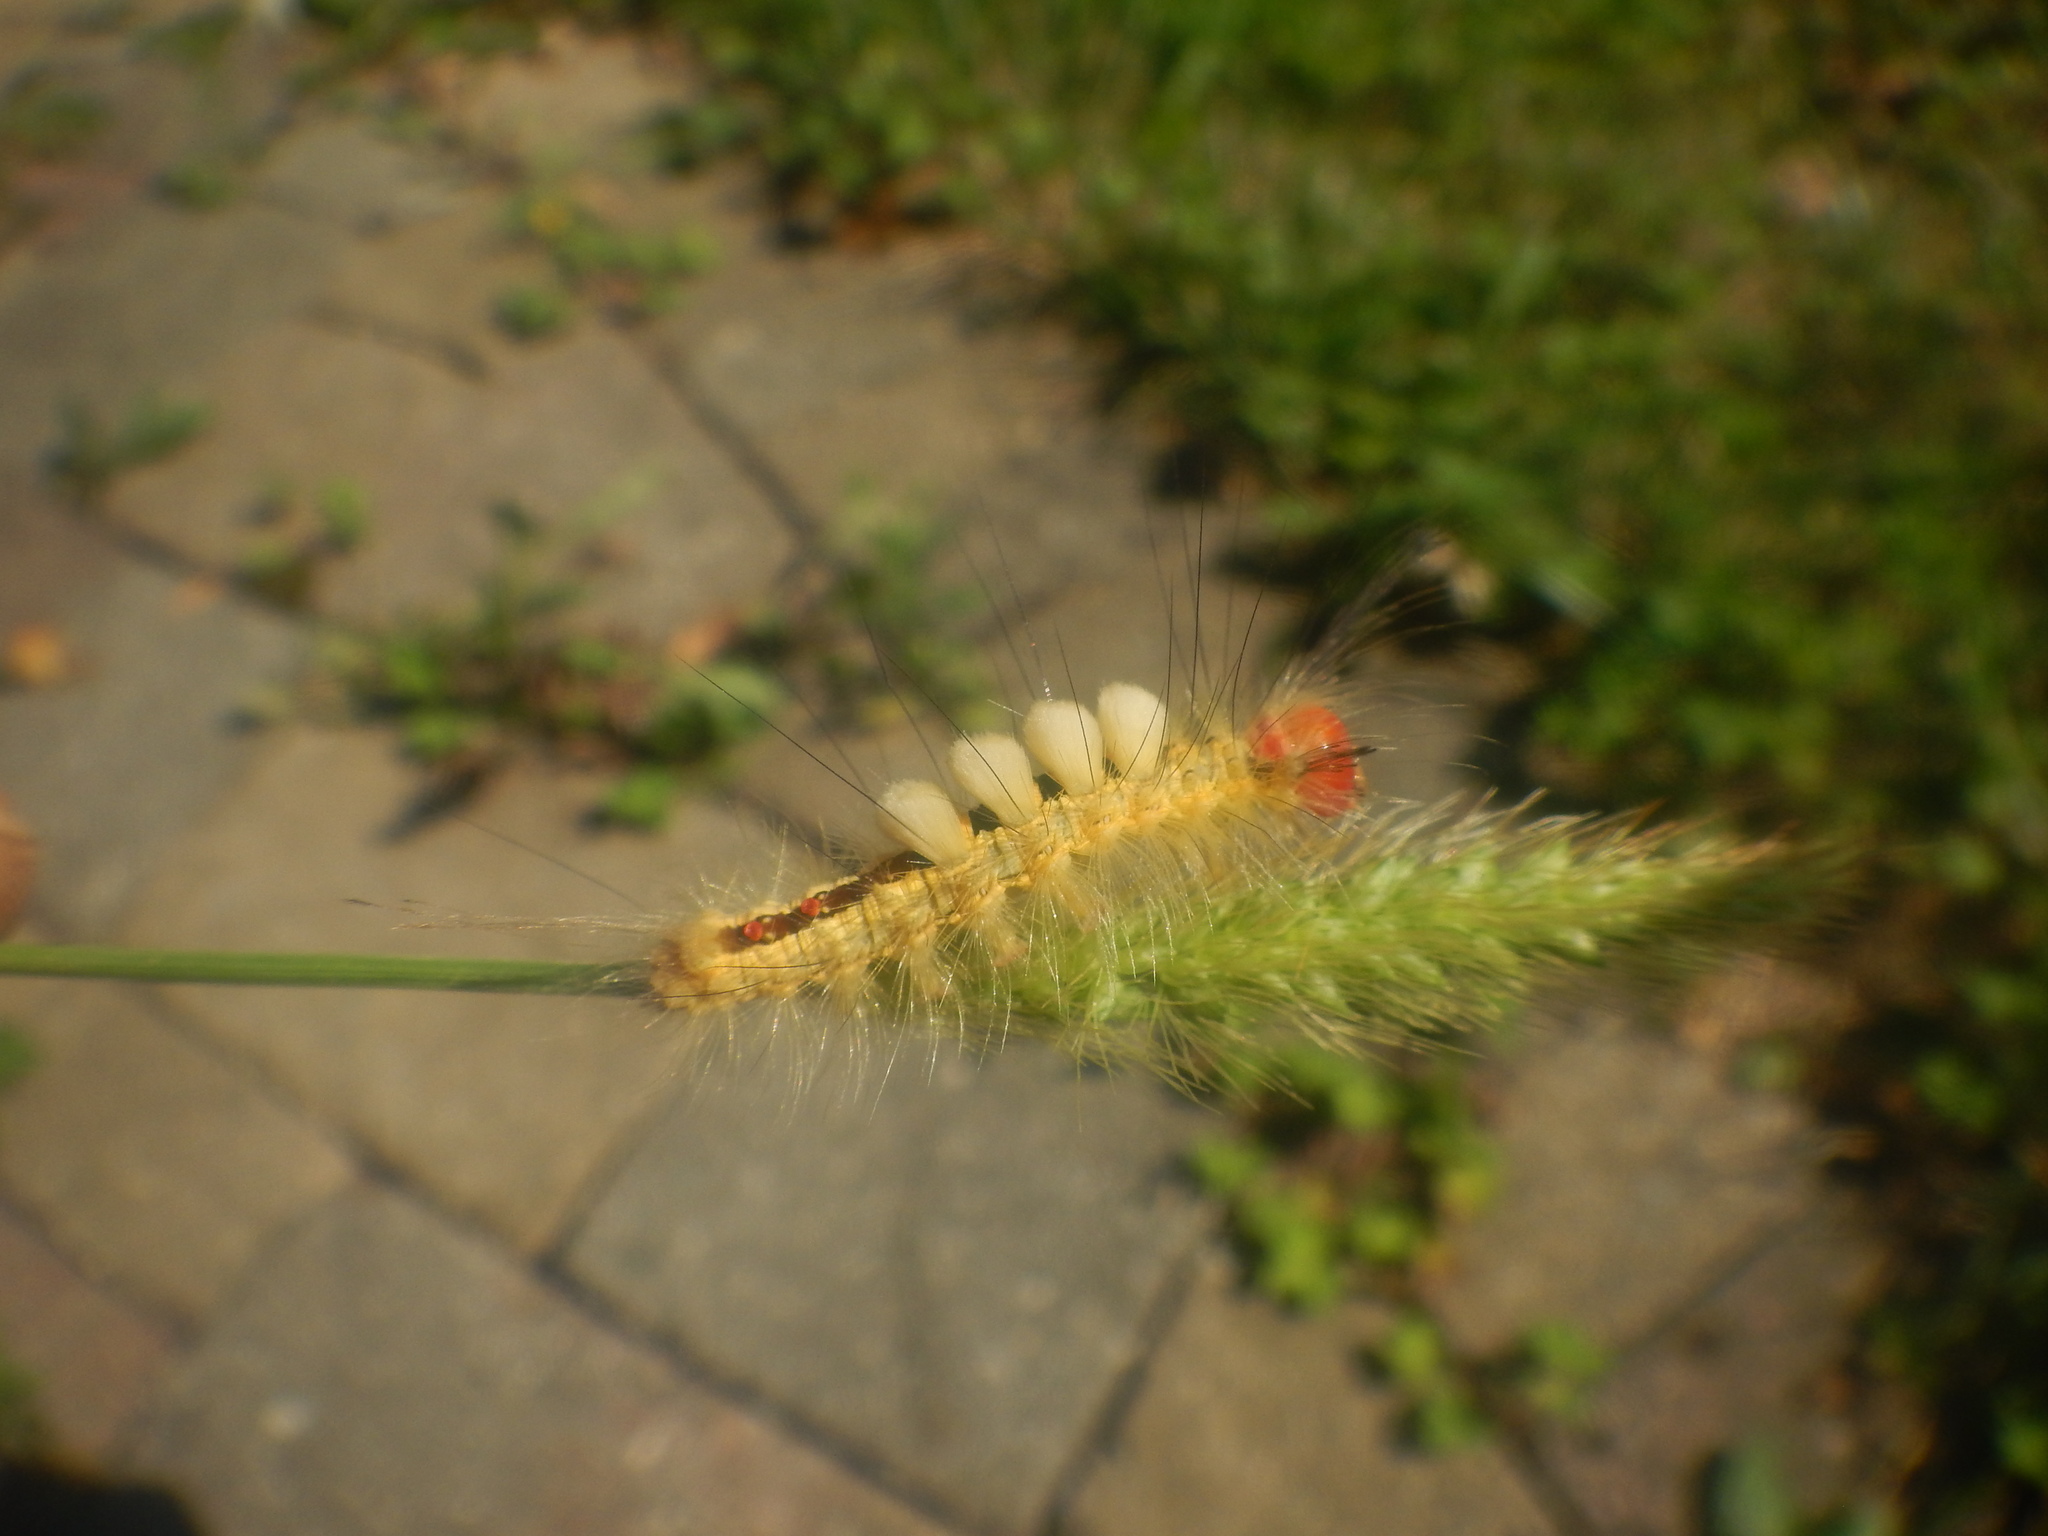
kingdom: Animalia
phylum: Arthropoda
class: Insecta
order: Lepidoptera
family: Erebidae
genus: Orgyia
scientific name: Orgyia leucostigma
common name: White-marked tussock moth
